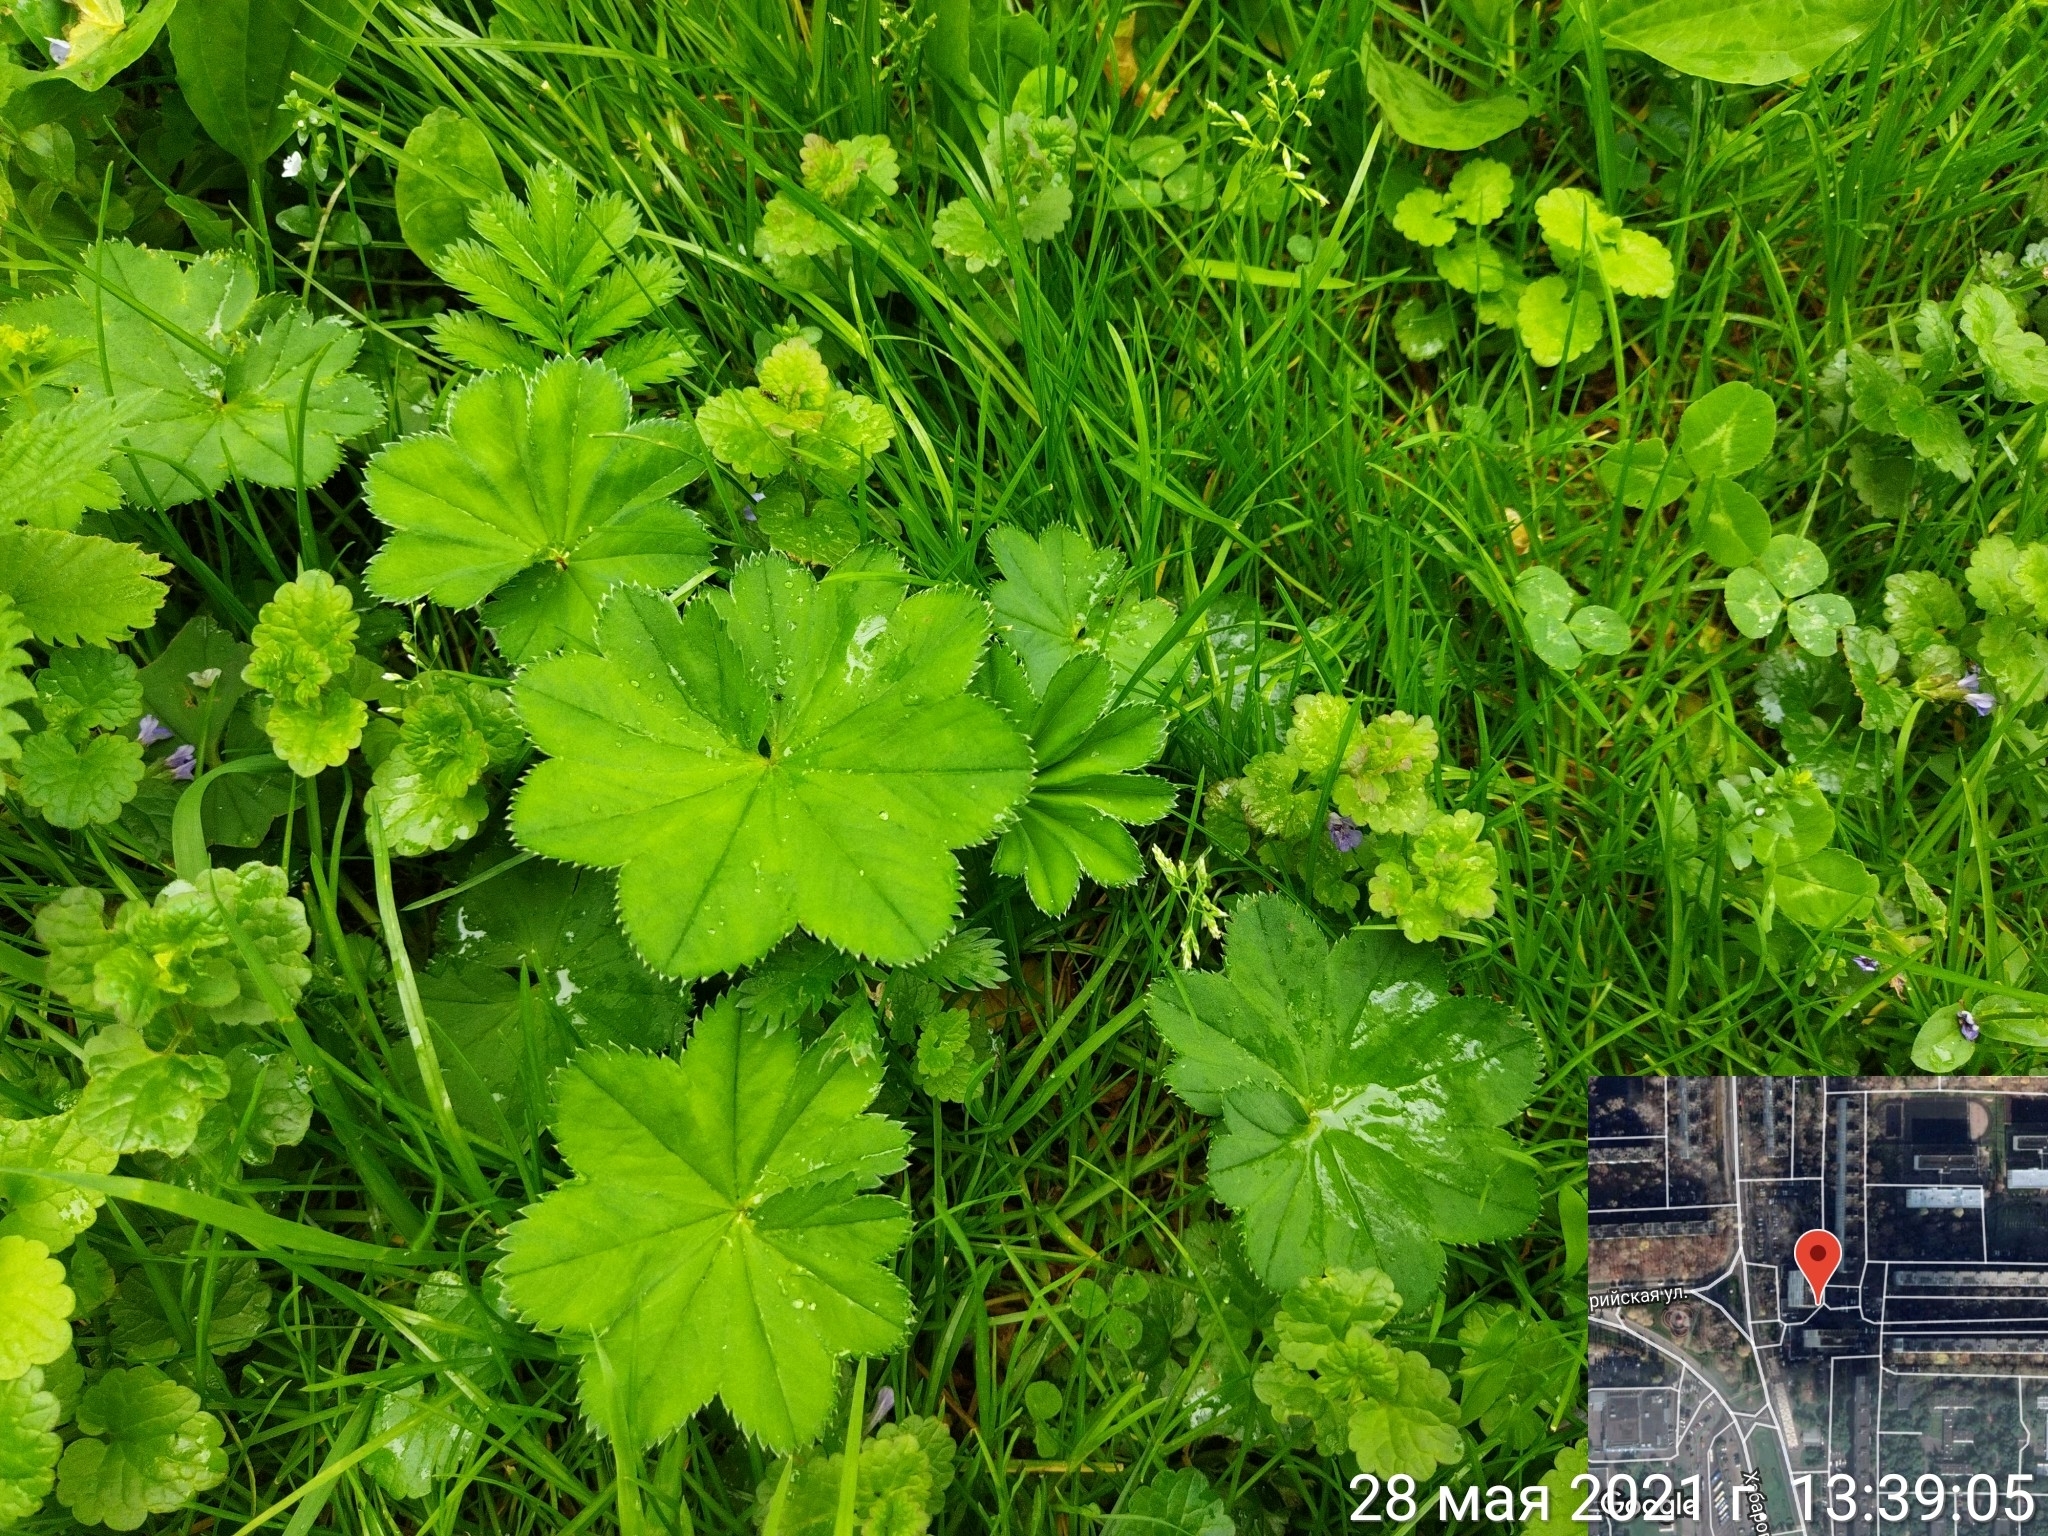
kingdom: Plantae
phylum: Tracheophyta
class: Magnoliopsida
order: Rosales
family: Rosaceae
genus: Alchemilla
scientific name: Alchemilla baltica
